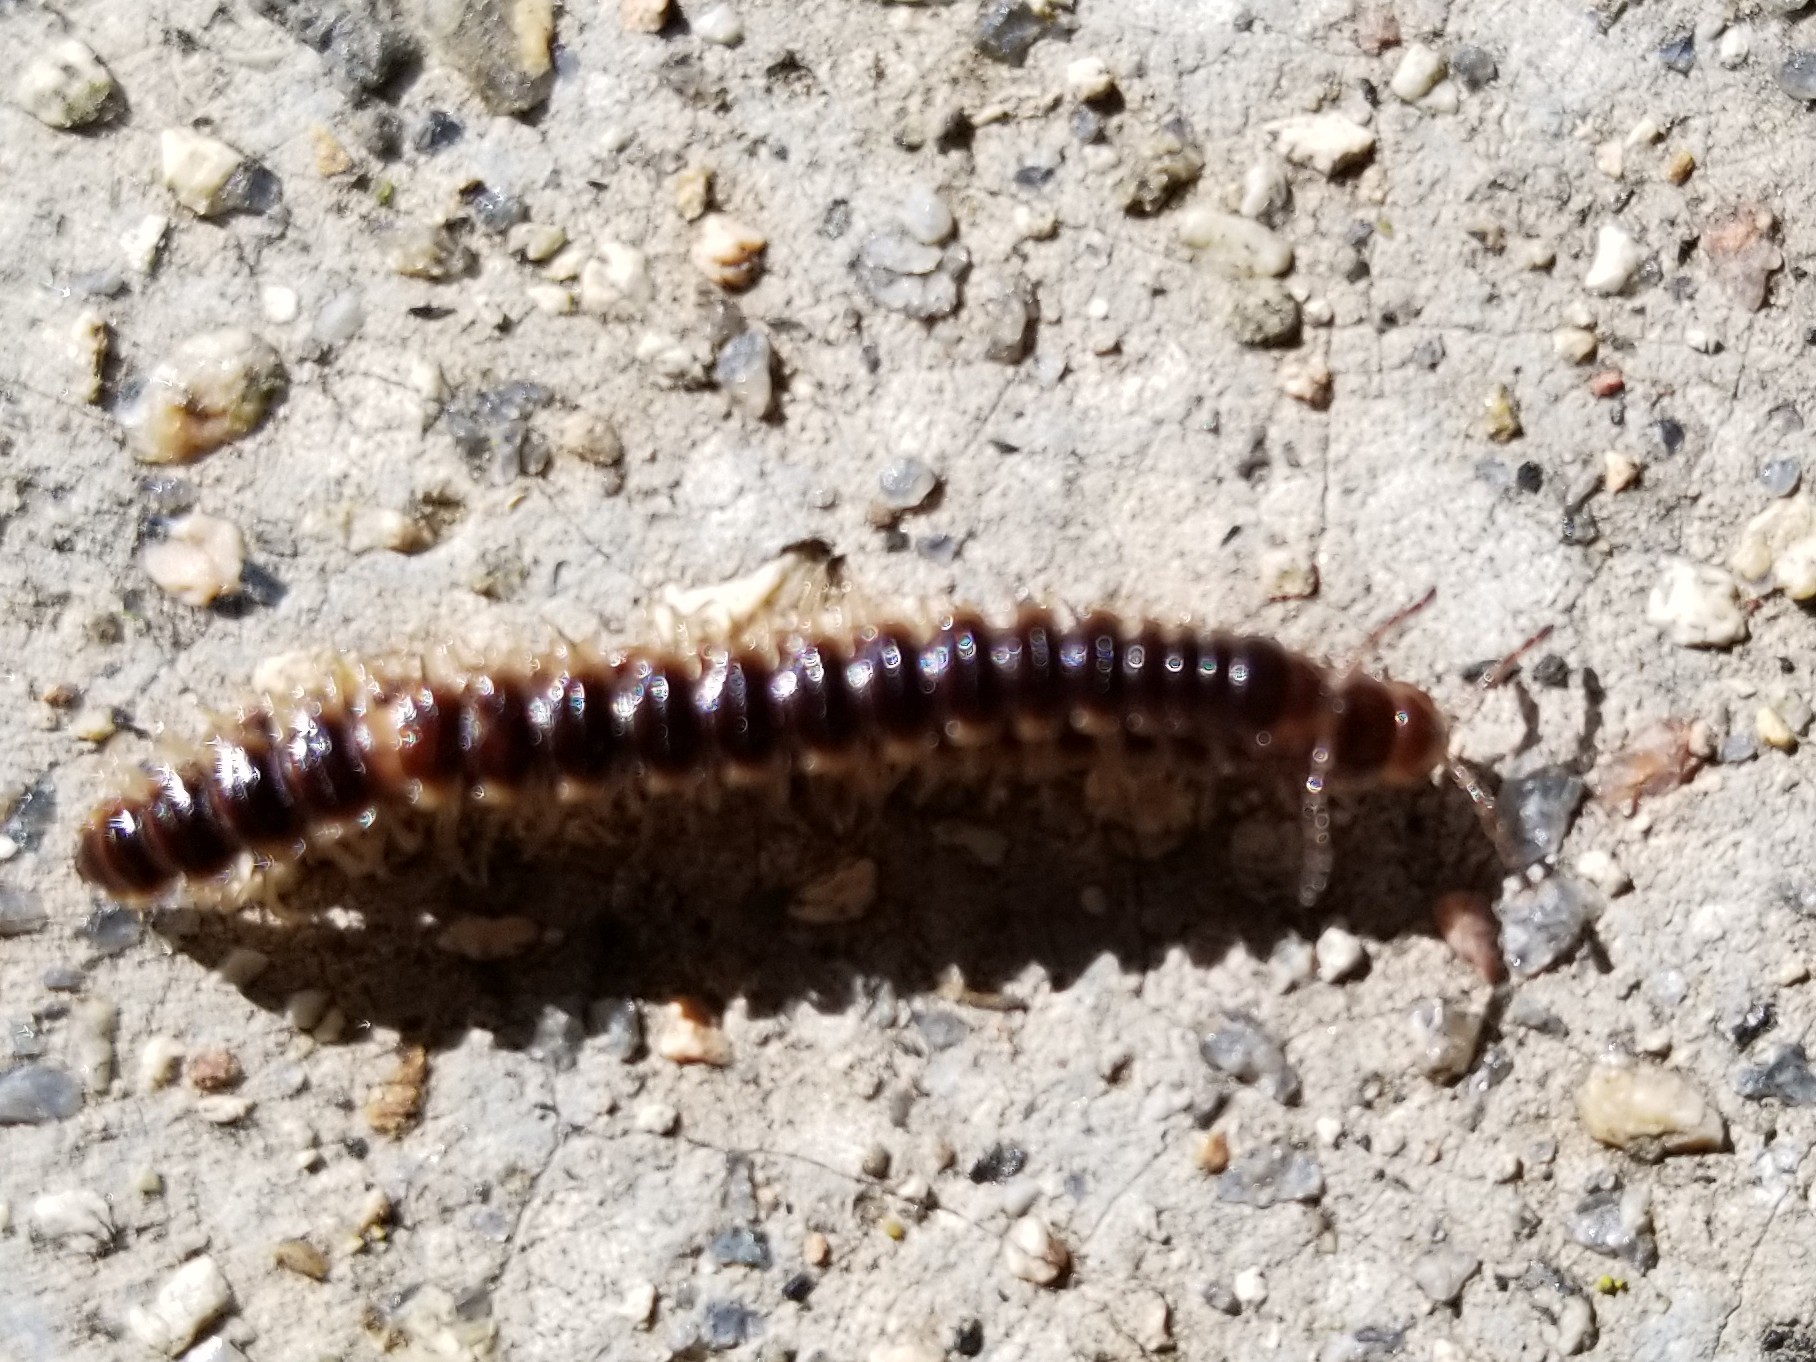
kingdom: Animalia
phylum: Arthropoda
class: Diplopoda
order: Polydesmida
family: Paradoxosomatidae
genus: Oxidus
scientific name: Oxidus gracilis
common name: Greenhouse millipede
